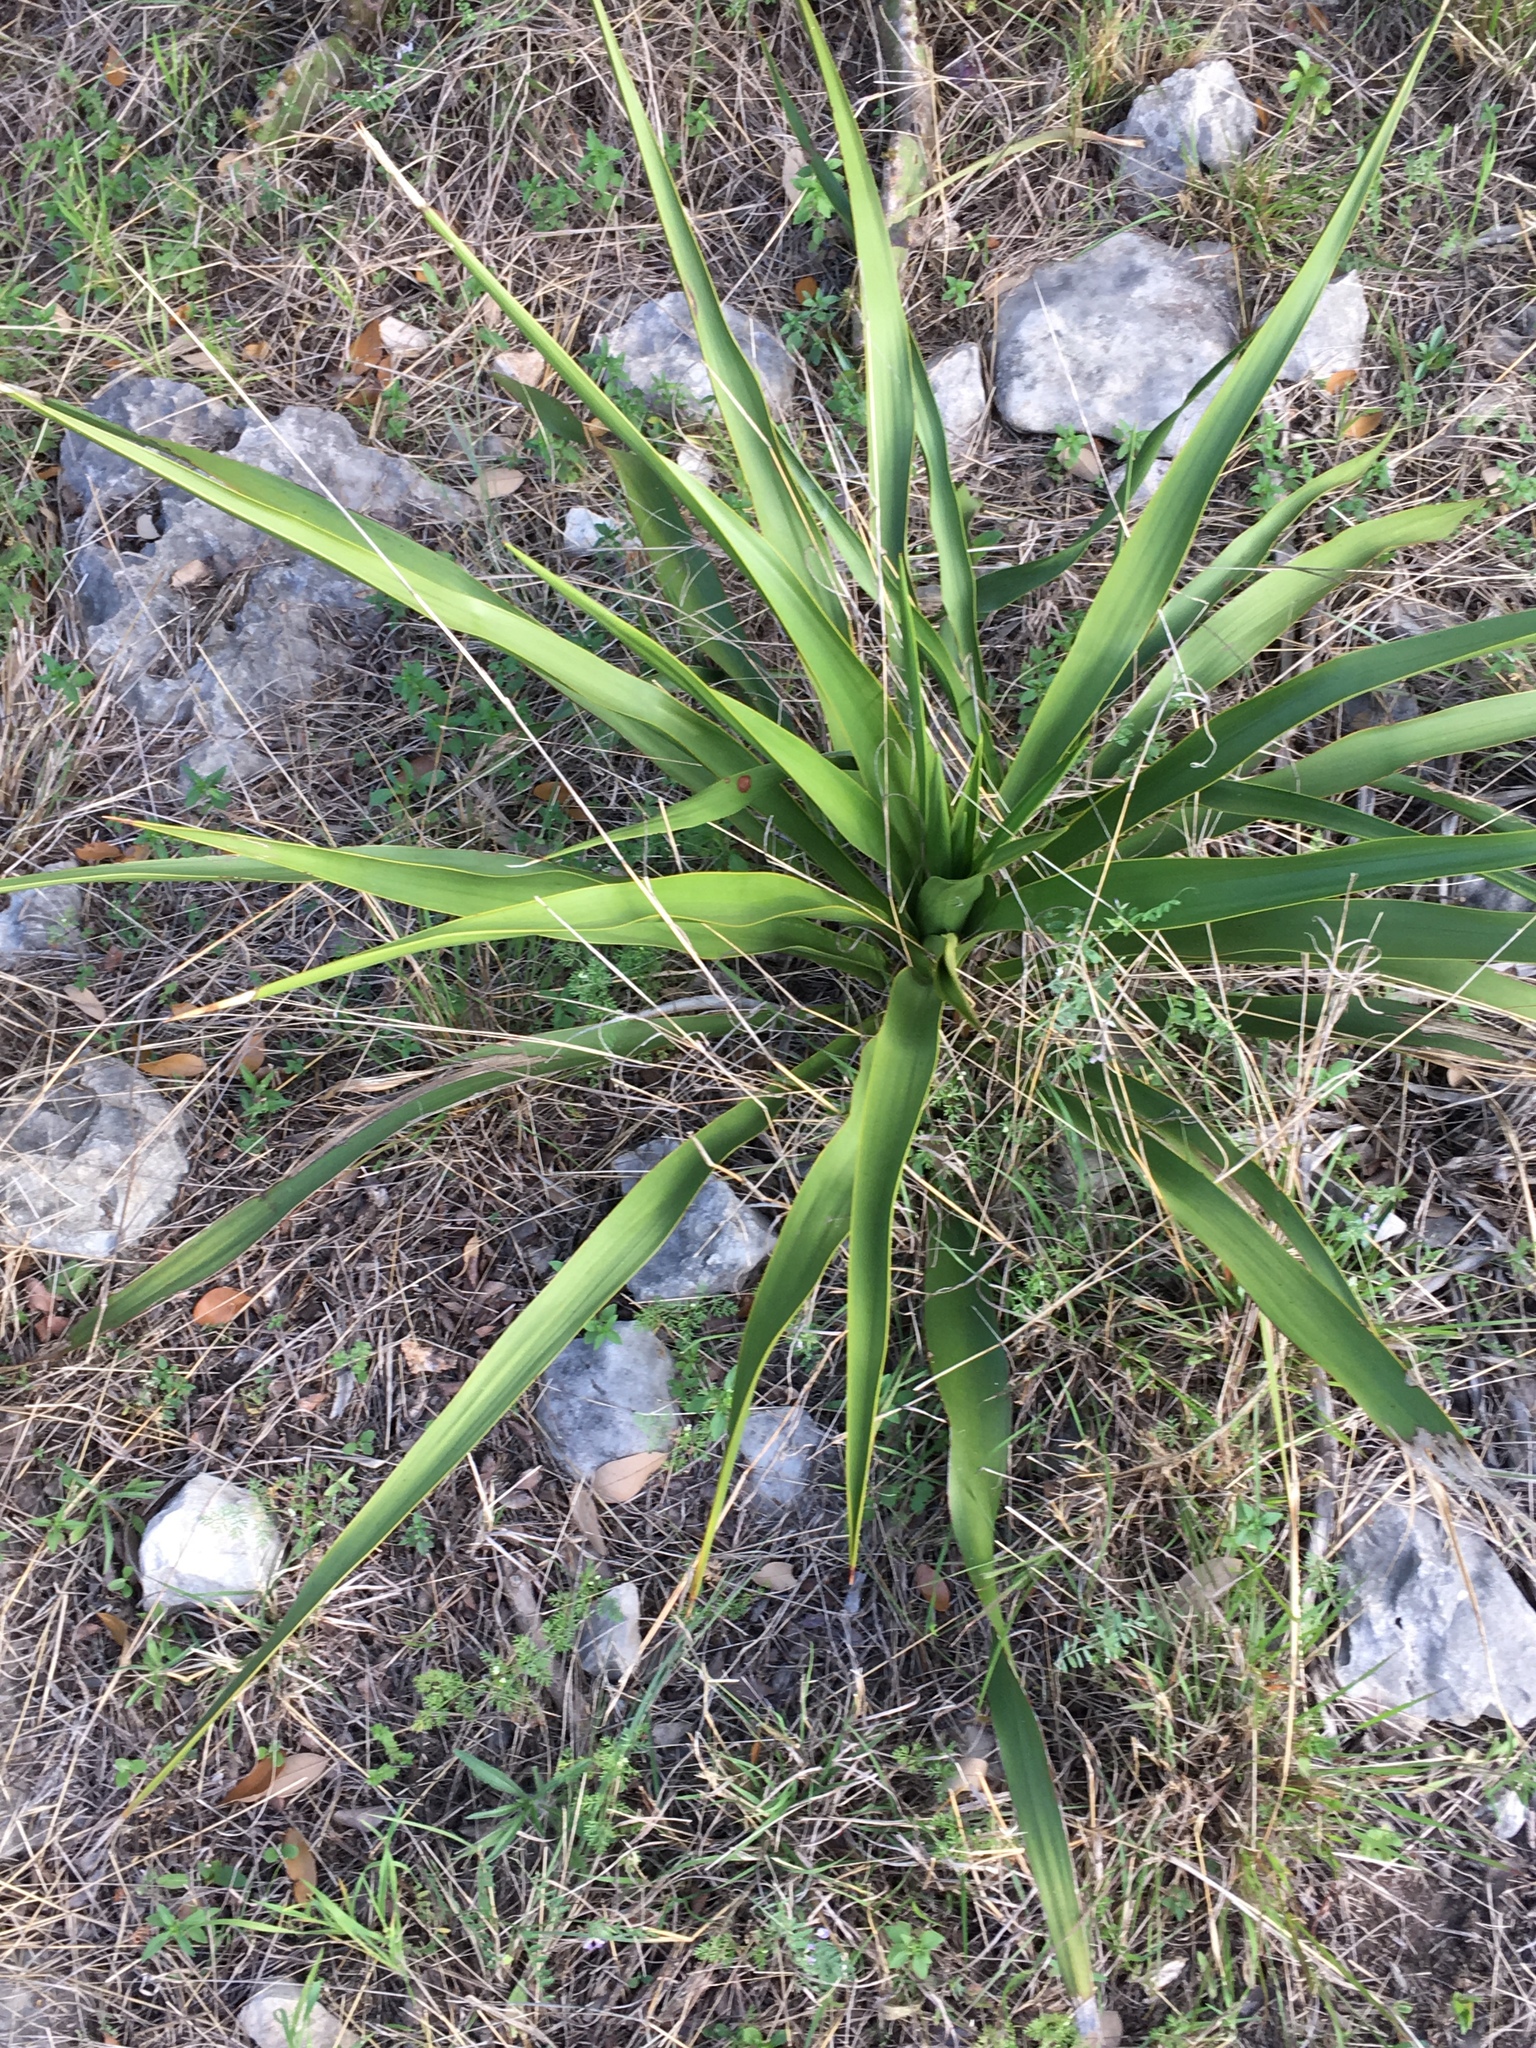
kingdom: Plantae
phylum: Tracheophyta
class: Liliopsida
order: Asparagales
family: Asparagaceae
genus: Yucca
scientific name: Yucca rupicola
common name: Twisted-leaf spanish-dagger
